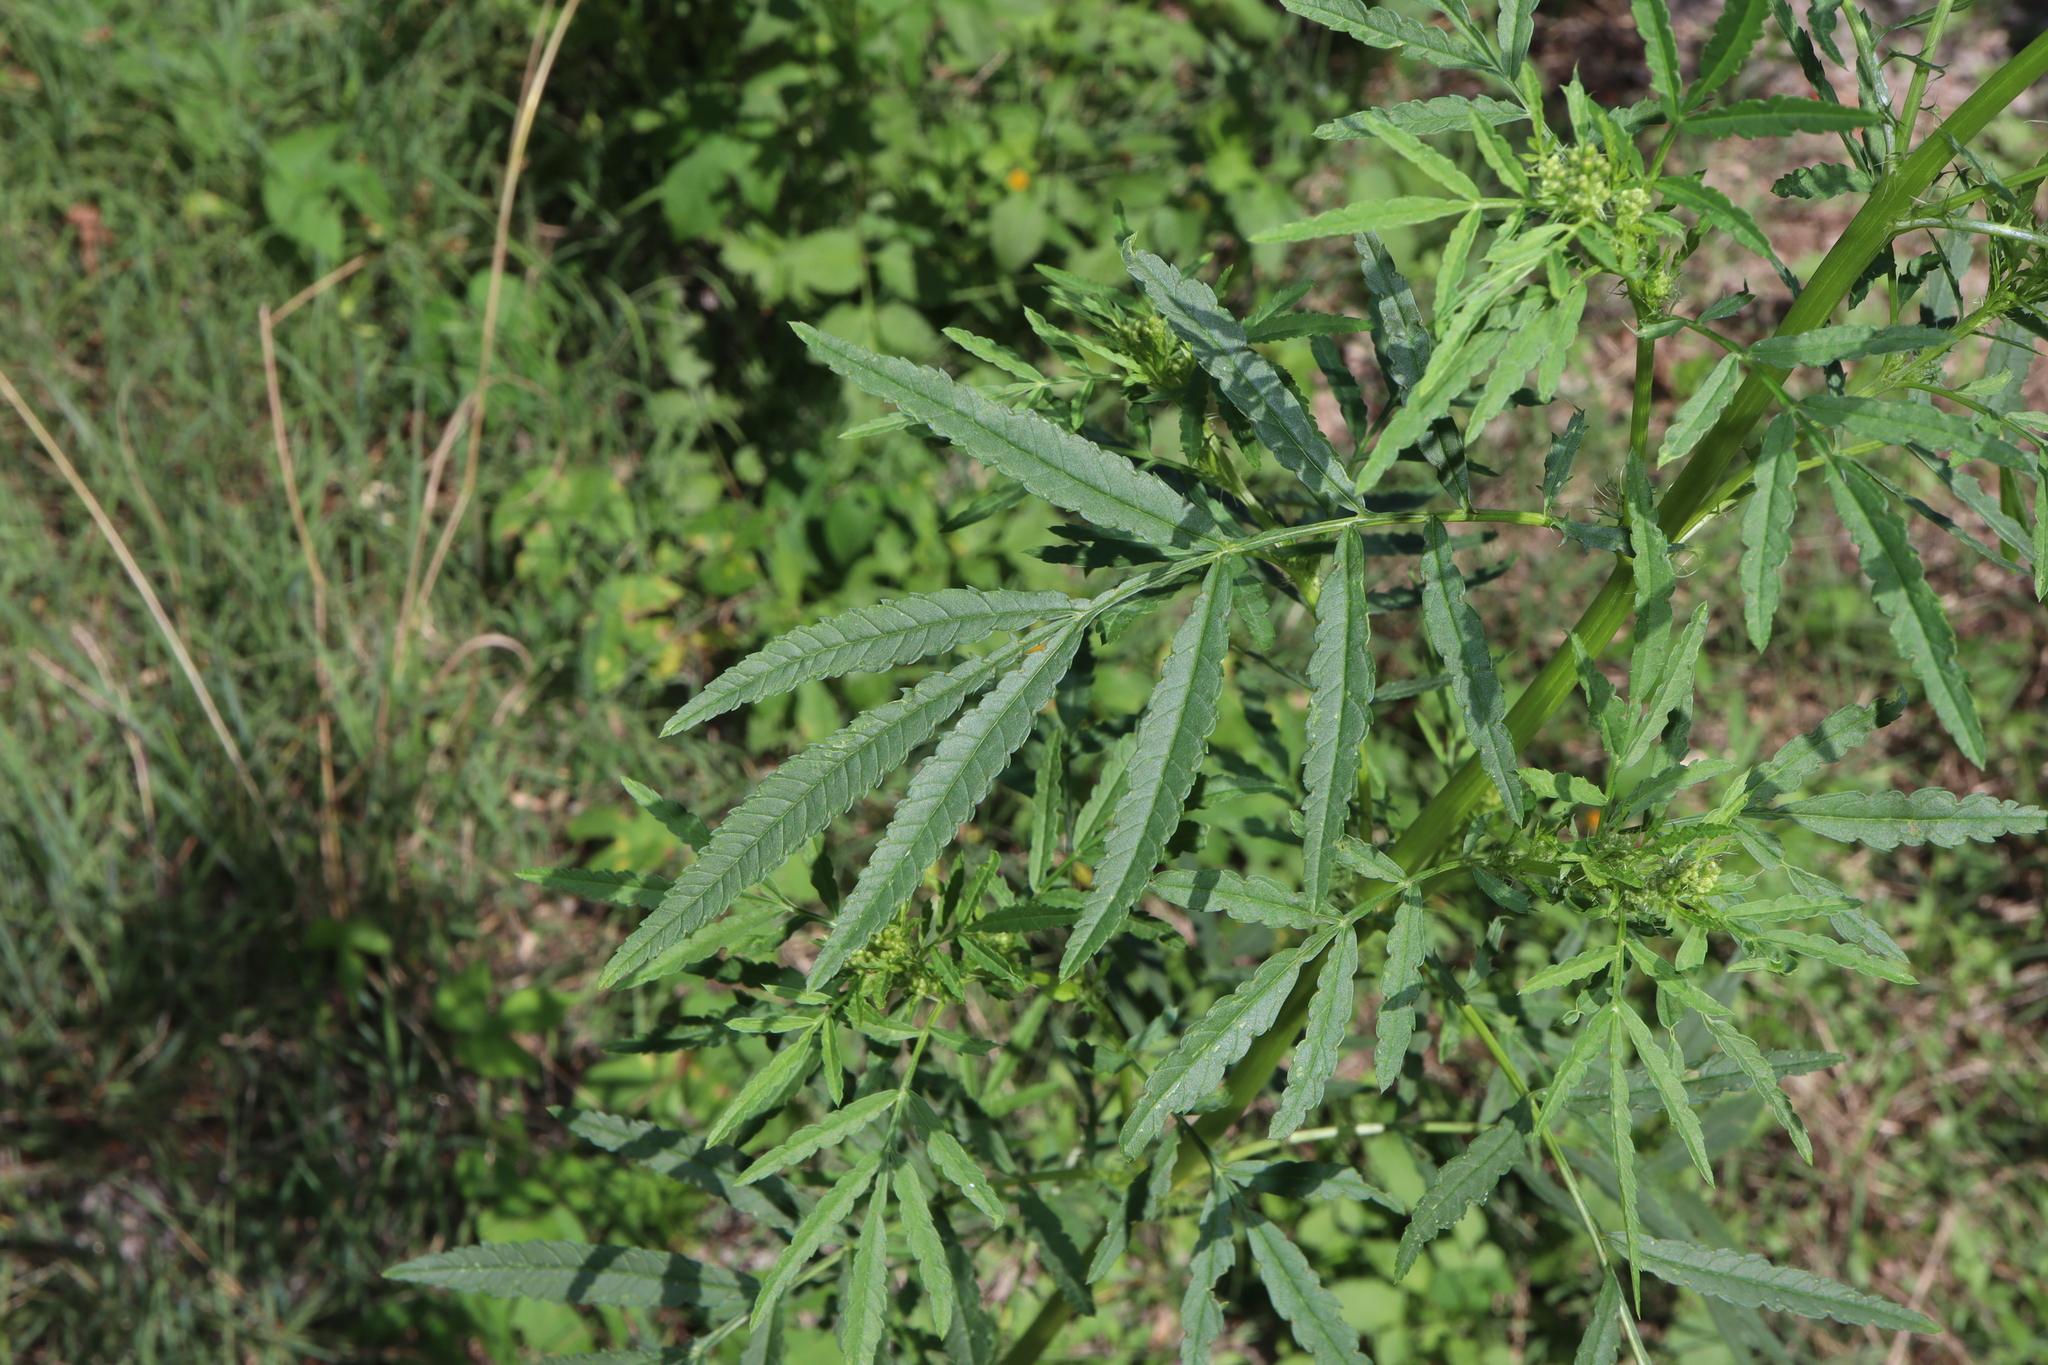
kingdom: Plantae
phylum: Tracheophyta
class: Magnoliopsida
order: Asterales
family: Asteraceae
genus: Tagetes
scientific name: Tagetes minuta
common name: Muster john henry
